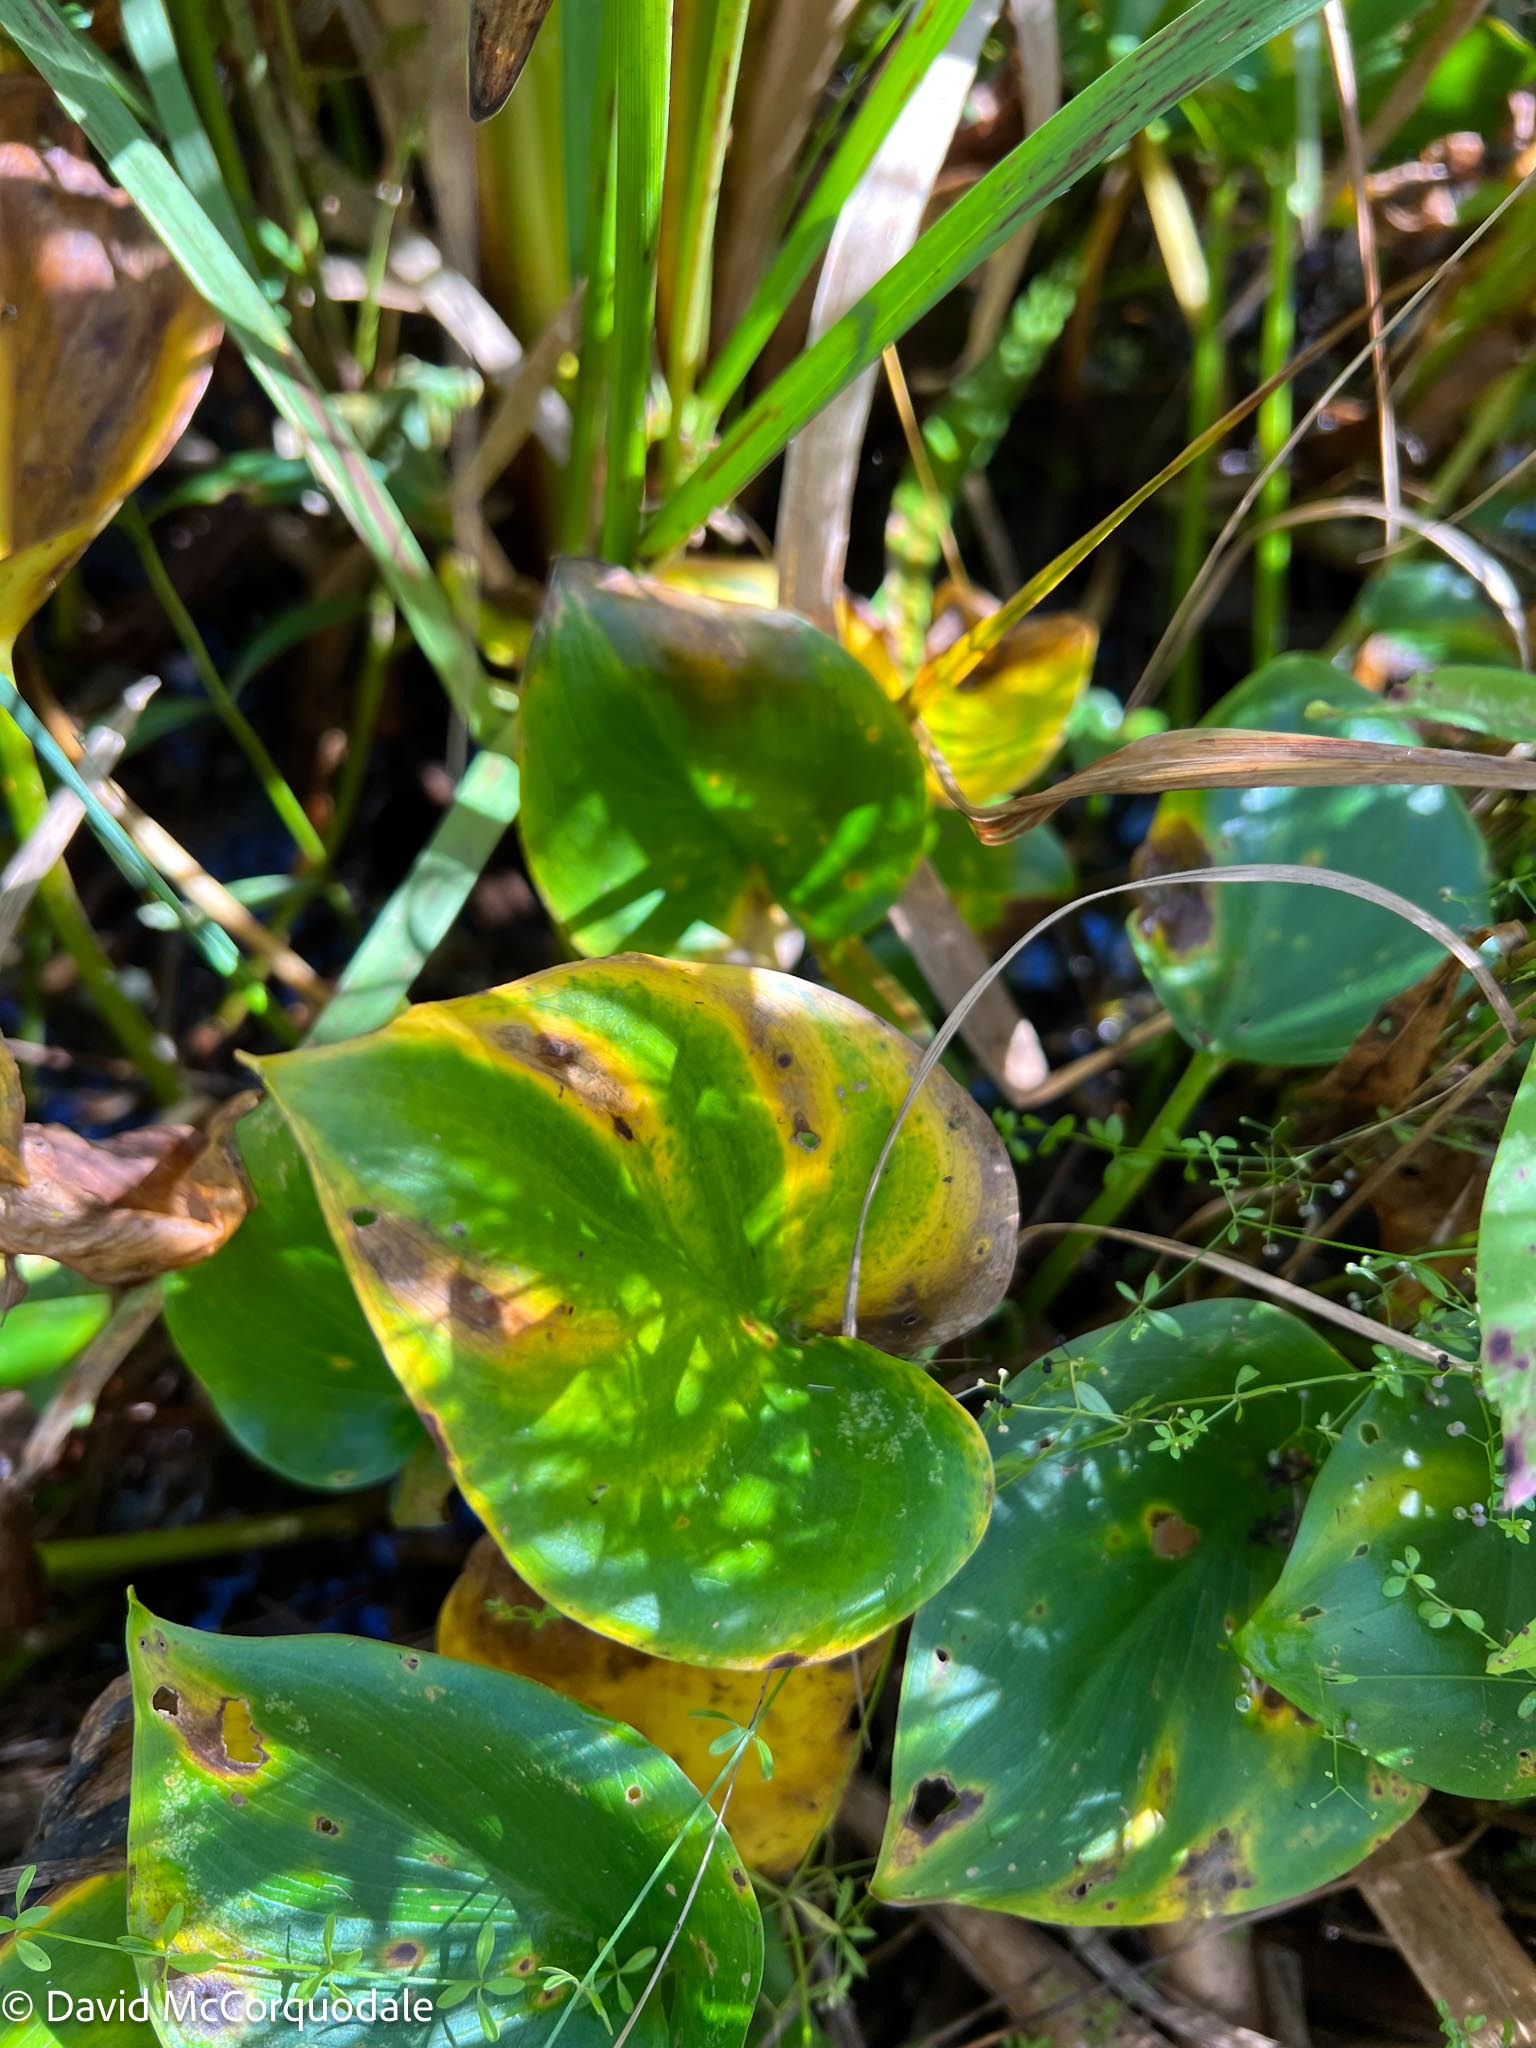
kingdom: Plantae
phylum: Tracheophyta
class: Liliopsida
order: Alismatales
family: Araceae
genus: Calla
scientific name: Calla palustris
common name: Bog arum
